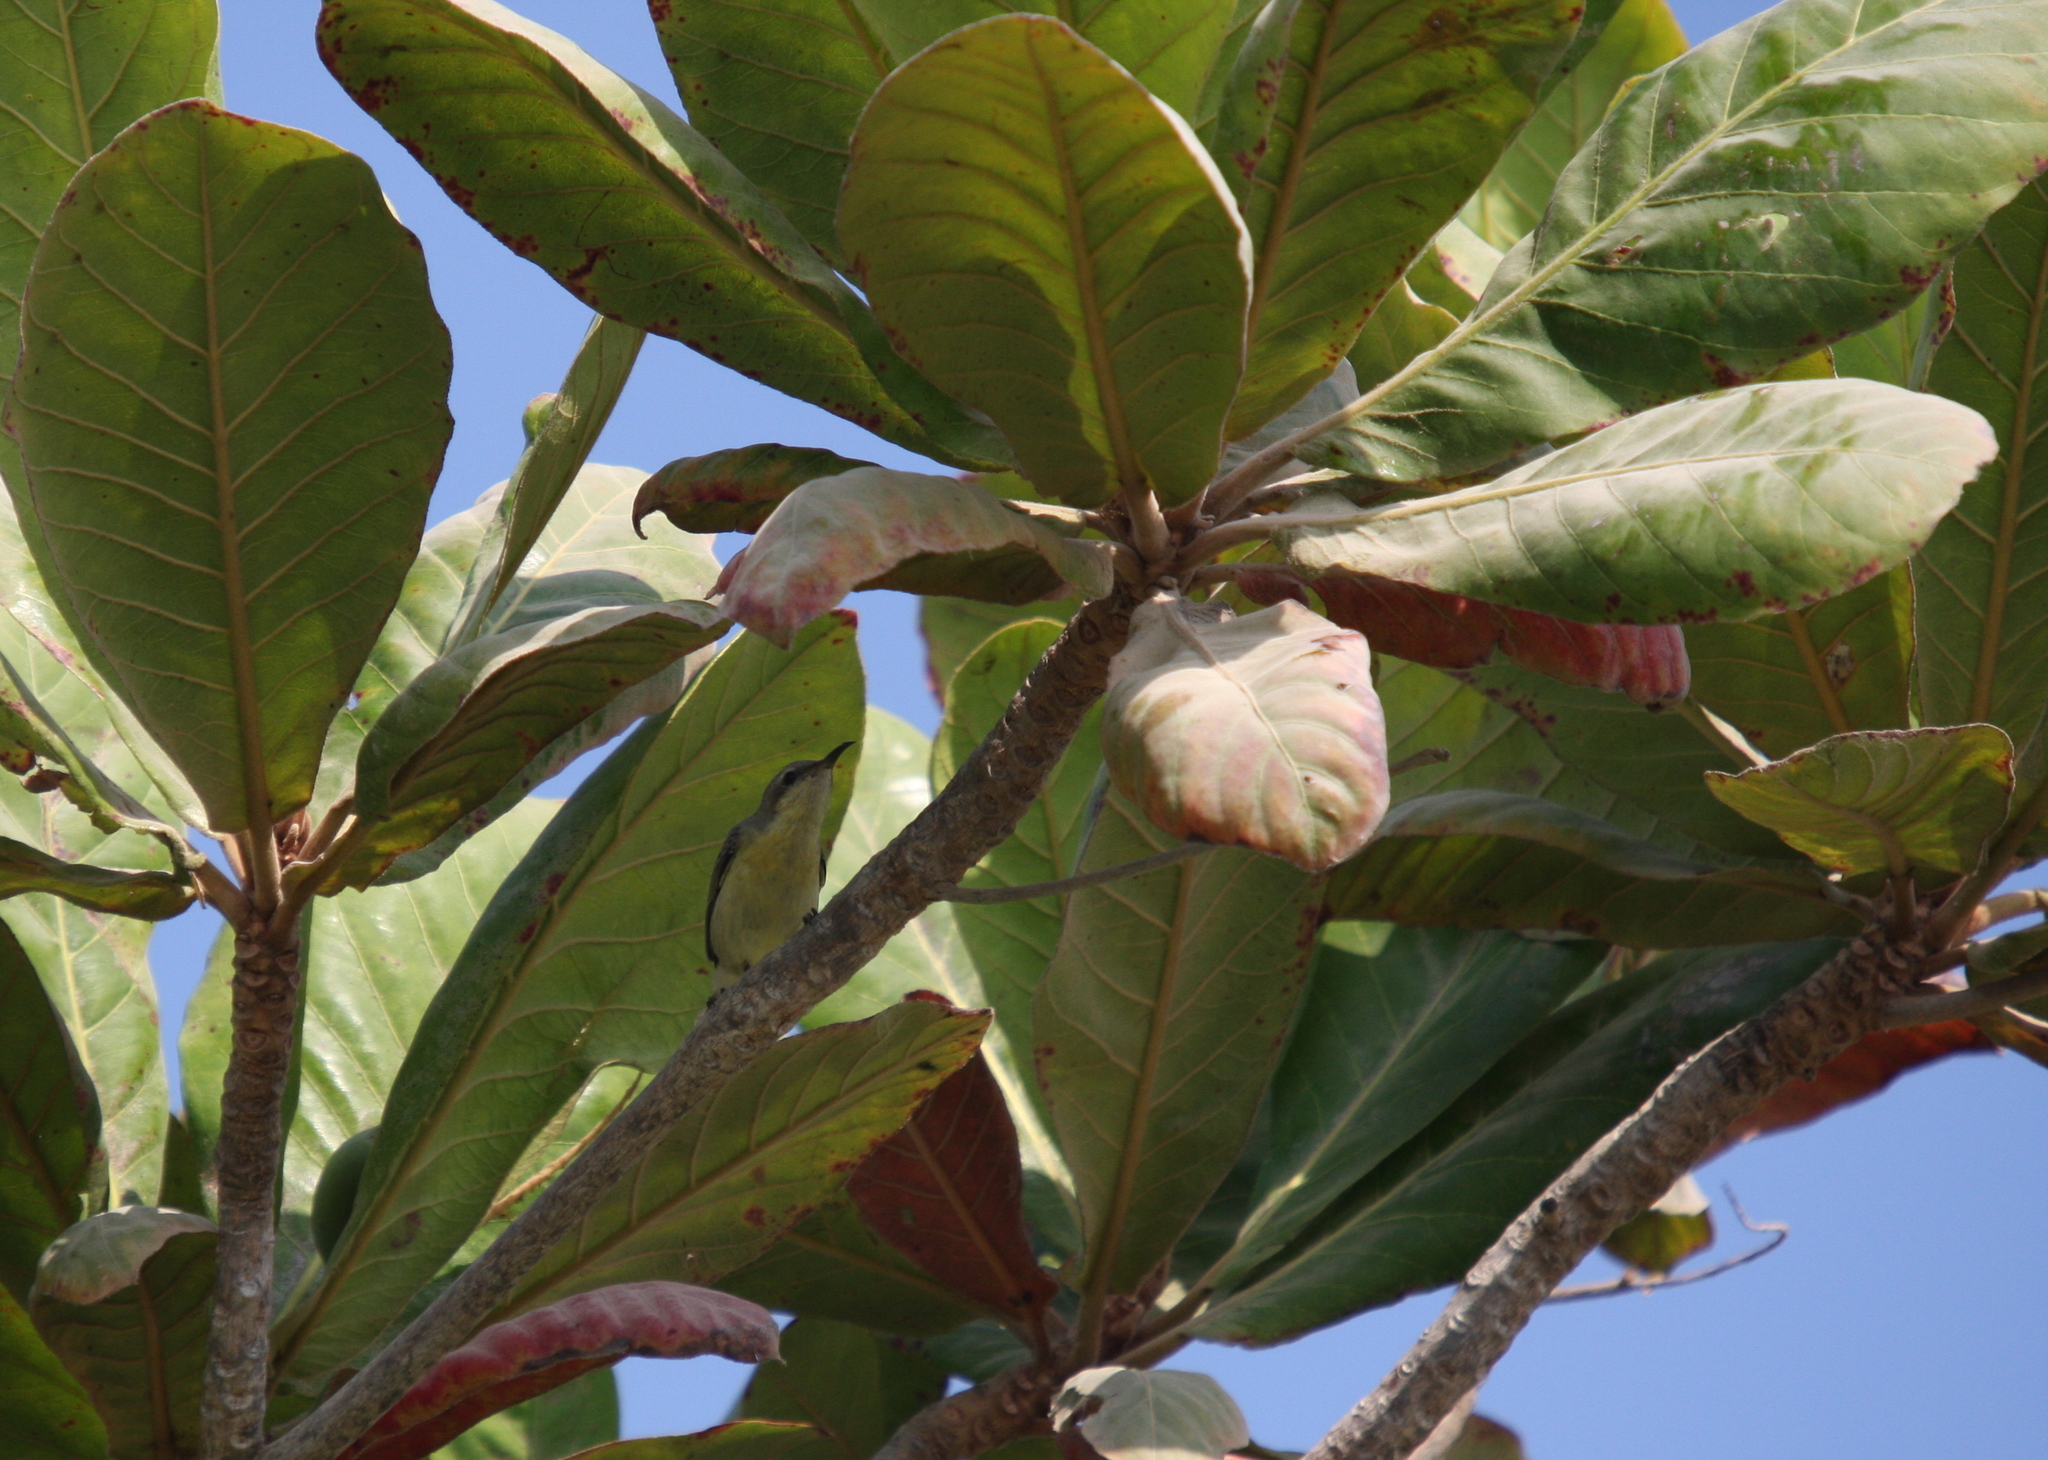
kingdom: Animalia
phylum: Chordata
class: Aves
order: Passeriformes
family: Nectariniidae
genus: Cinnyris
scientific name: Cinnyris asiaticus
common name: Purple sunbird
